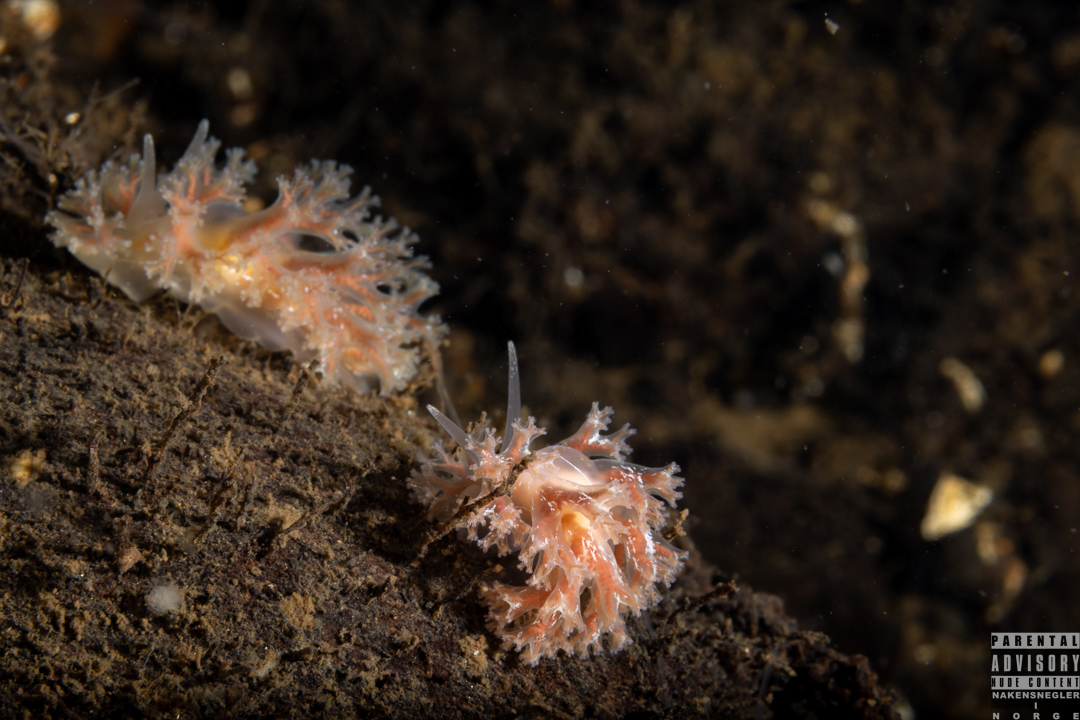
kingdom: Animalia
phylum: Mollusca
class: Gastropoda
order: Nudibranchia
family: Heroidae
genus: Hero
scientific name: Hero formosa
